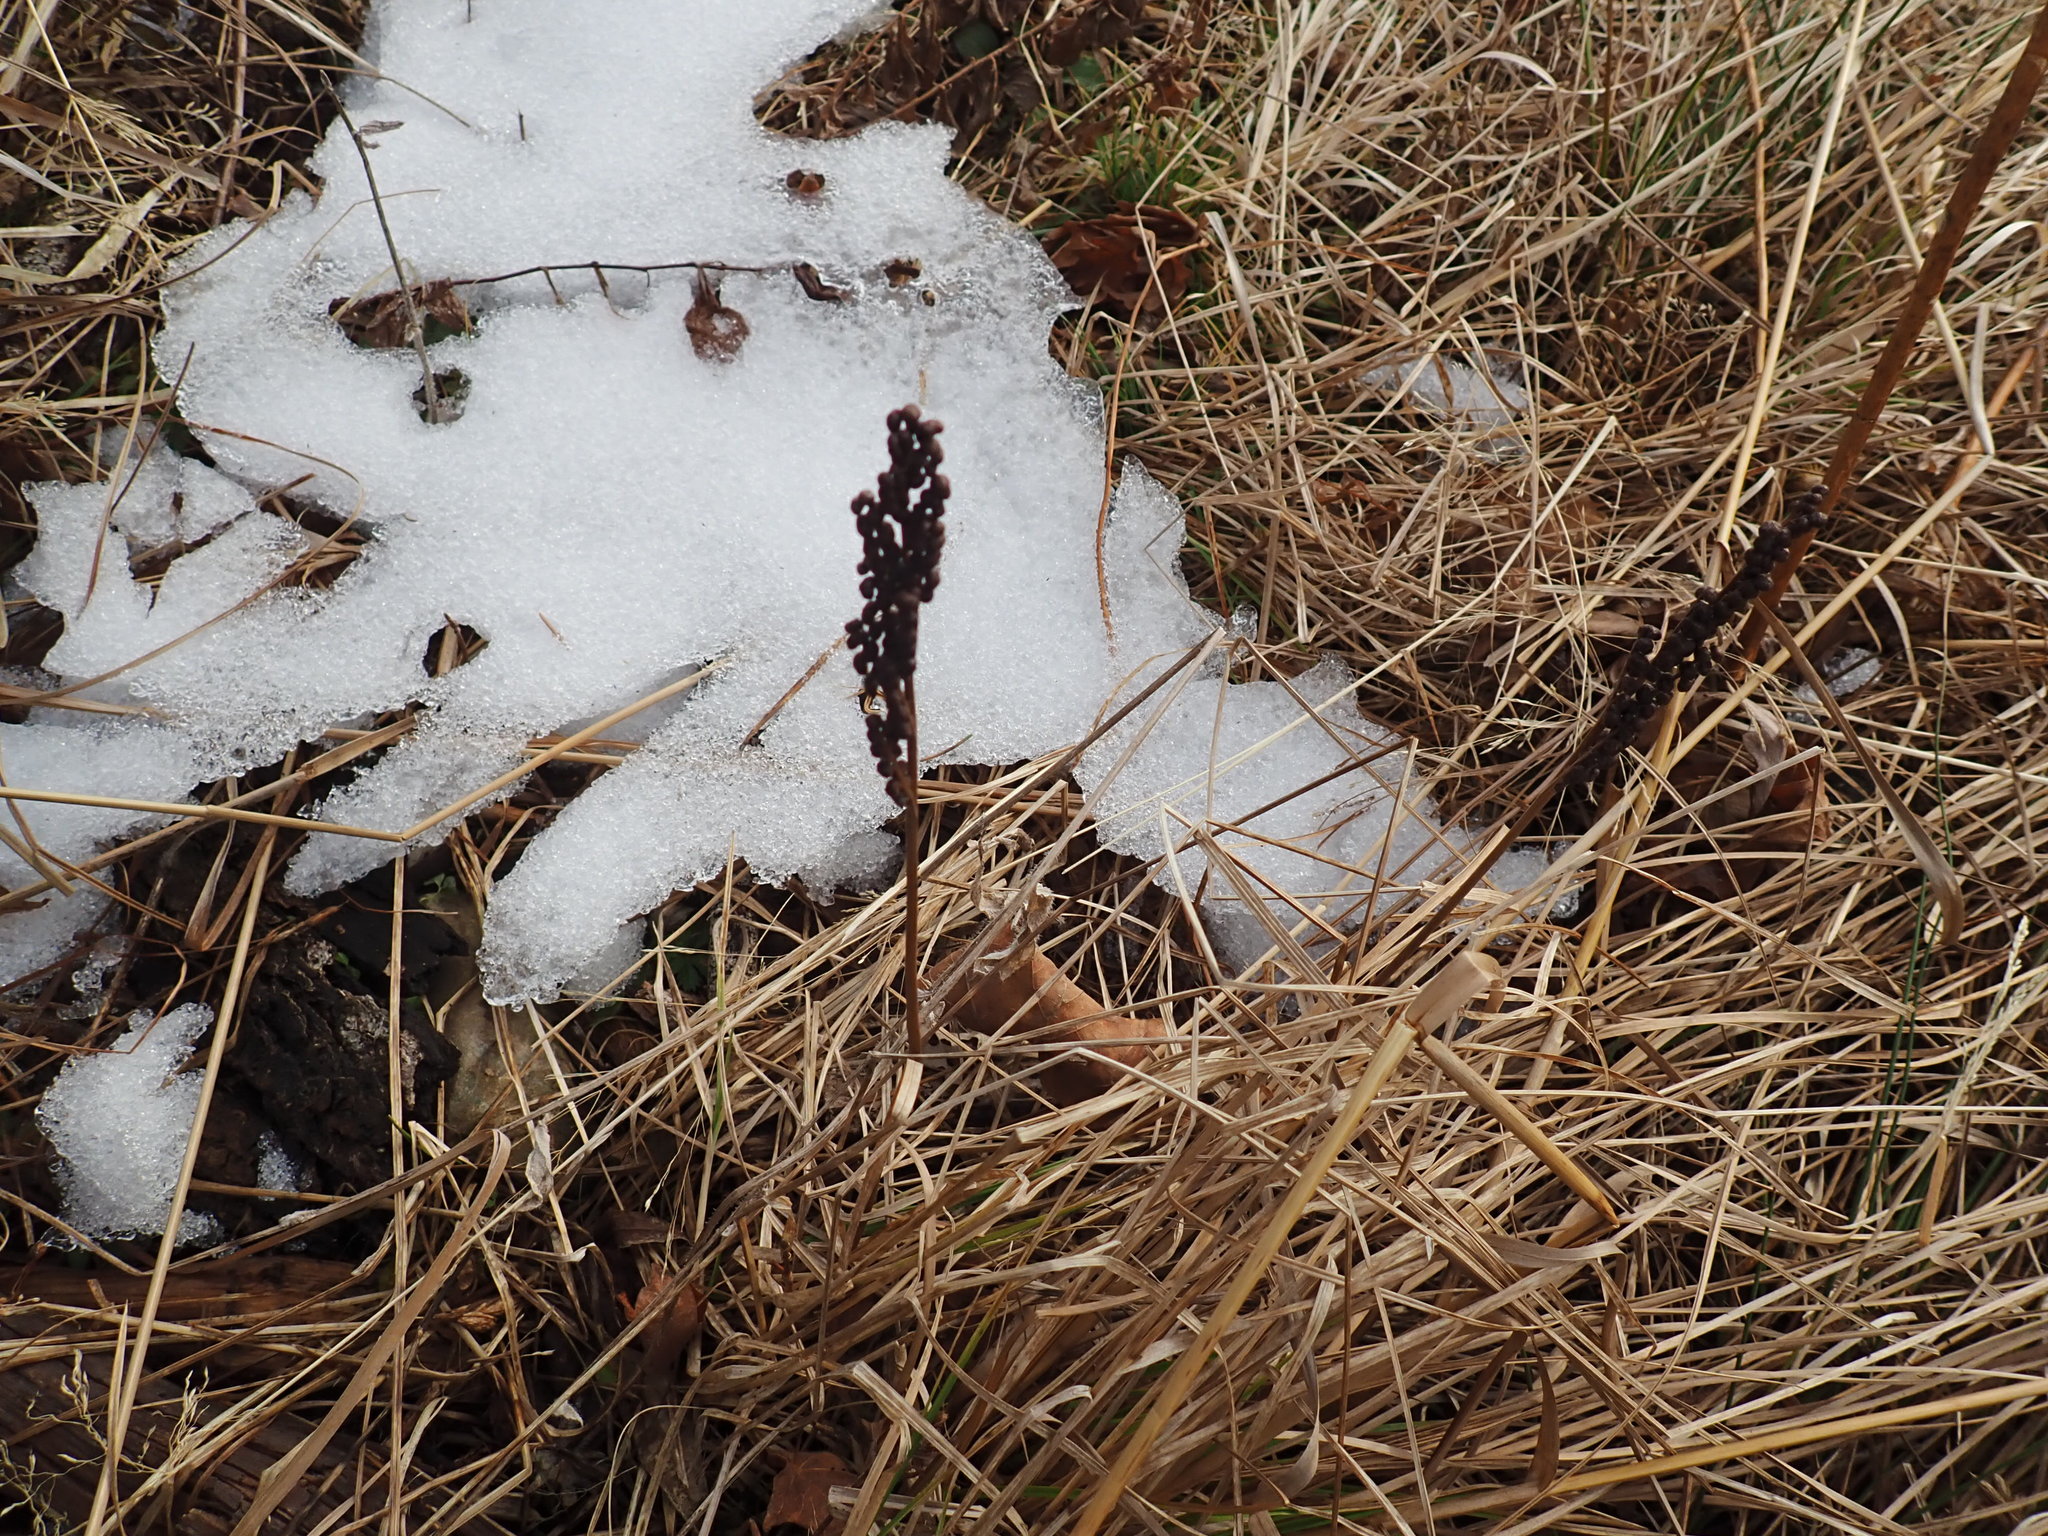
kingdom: Plantae
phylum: Tracheophyta
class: Polypodiopsida
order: Polypodiales
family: Onocleaceae
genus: Onoclea
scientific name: Onoclea sensibilis
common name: Sensitive fern
